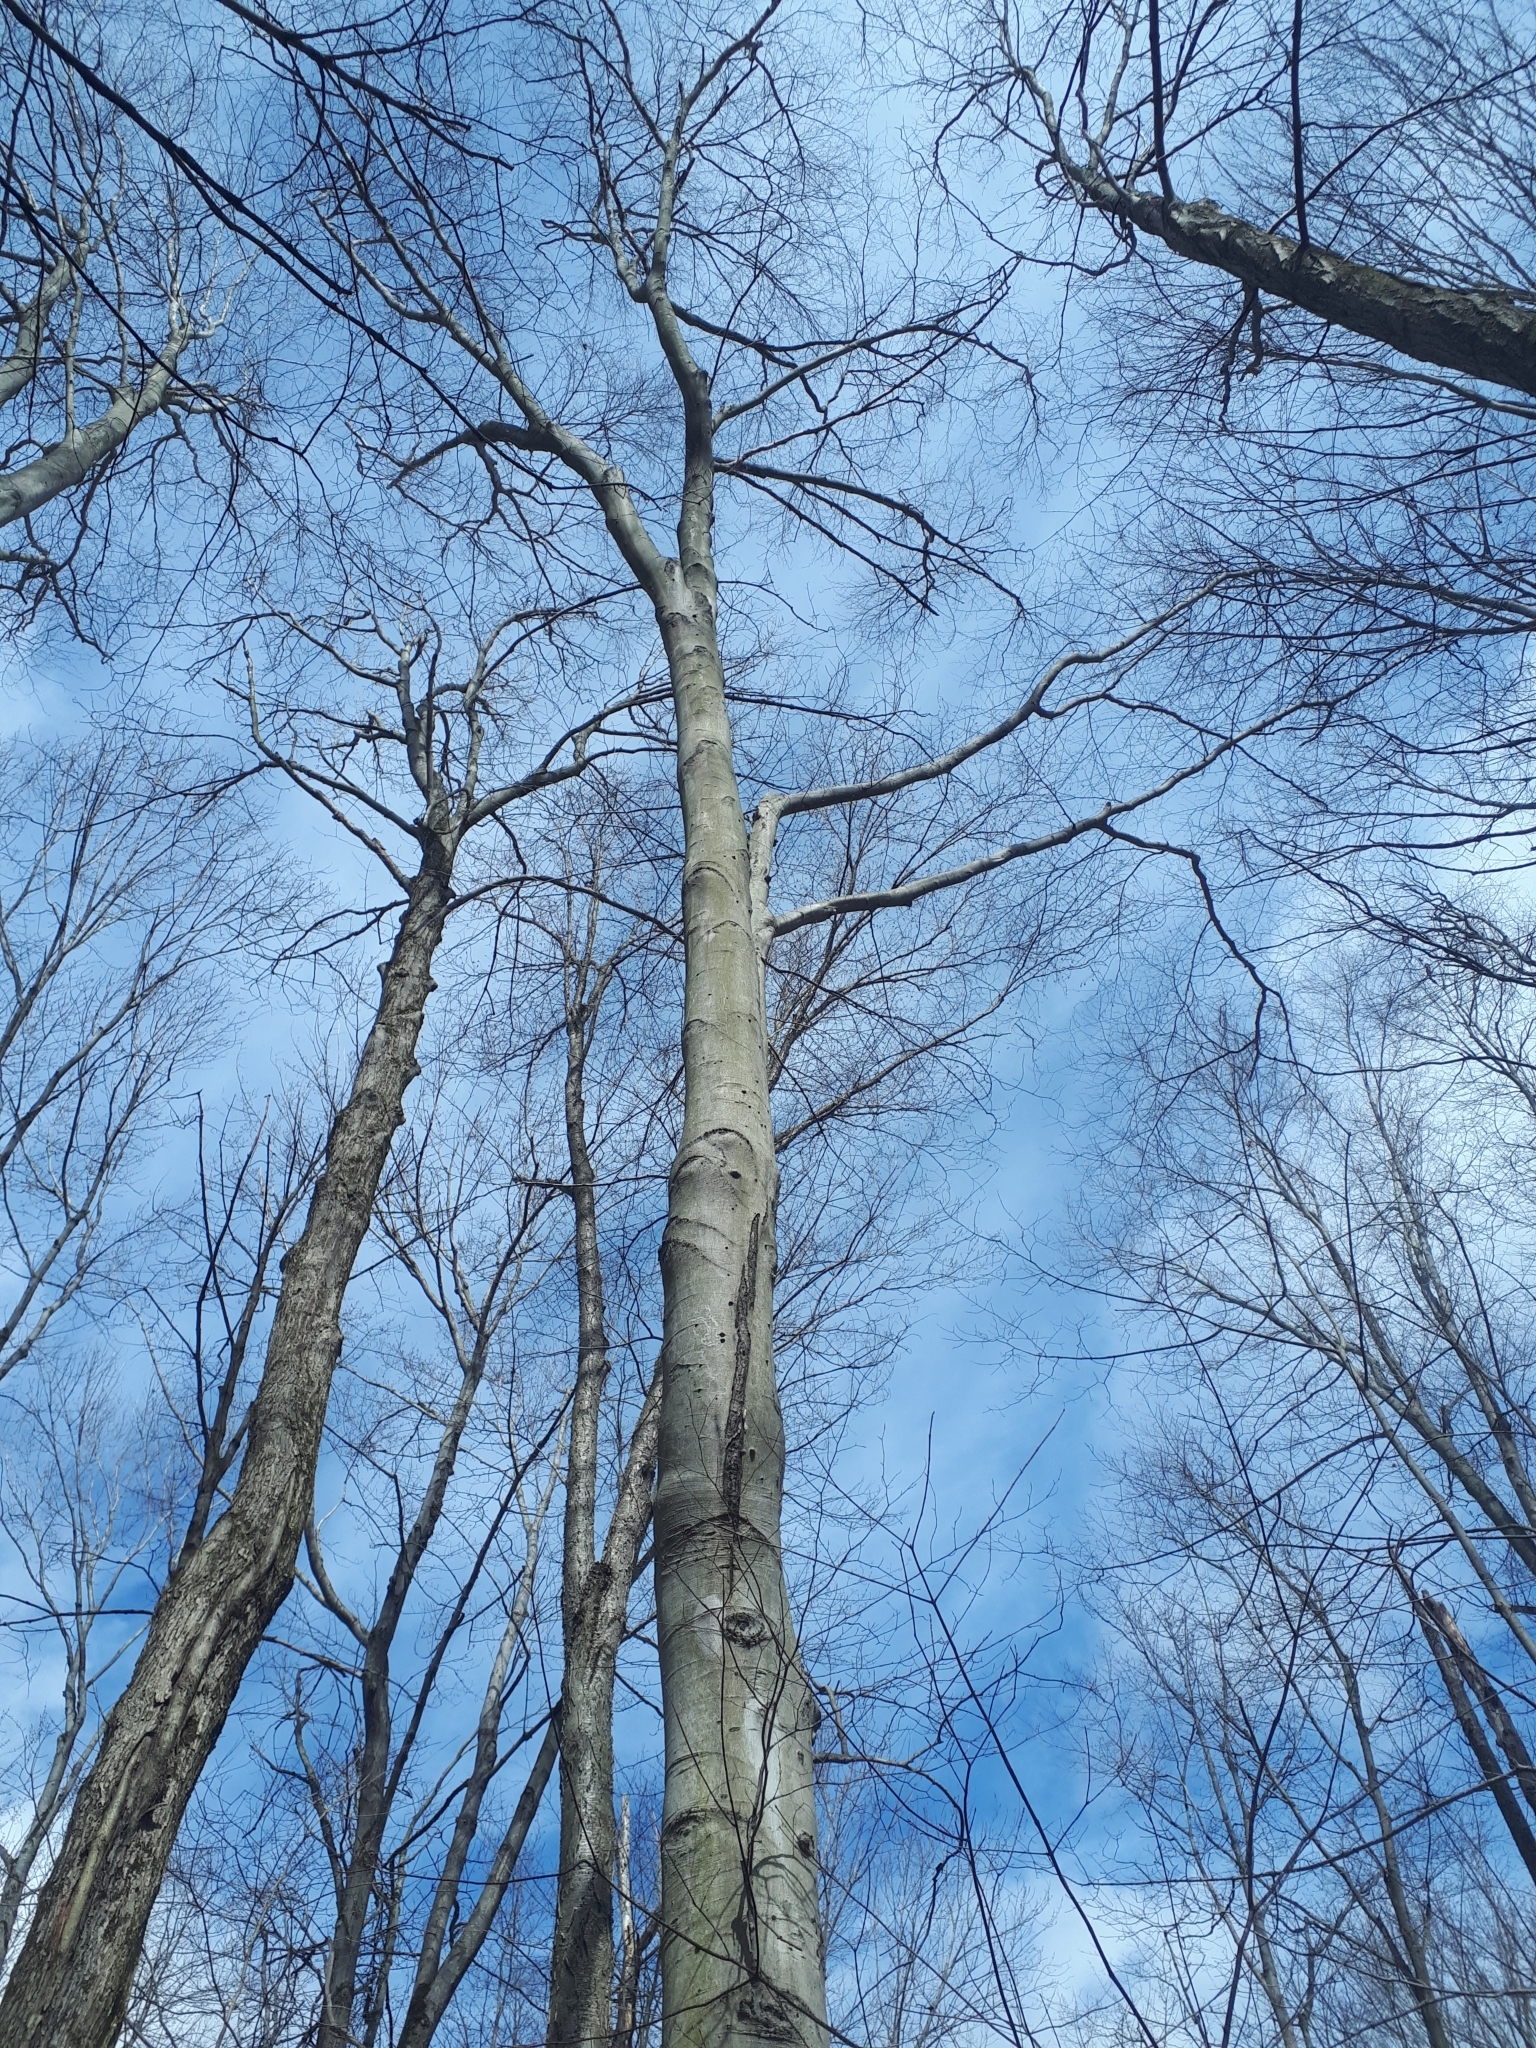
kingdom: Plantae
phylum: Tracheophyta
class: Magnoliopsida
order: Fagales
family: Fagaceae
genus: Fagus
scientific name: Fagus grandifolia
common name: American beech
